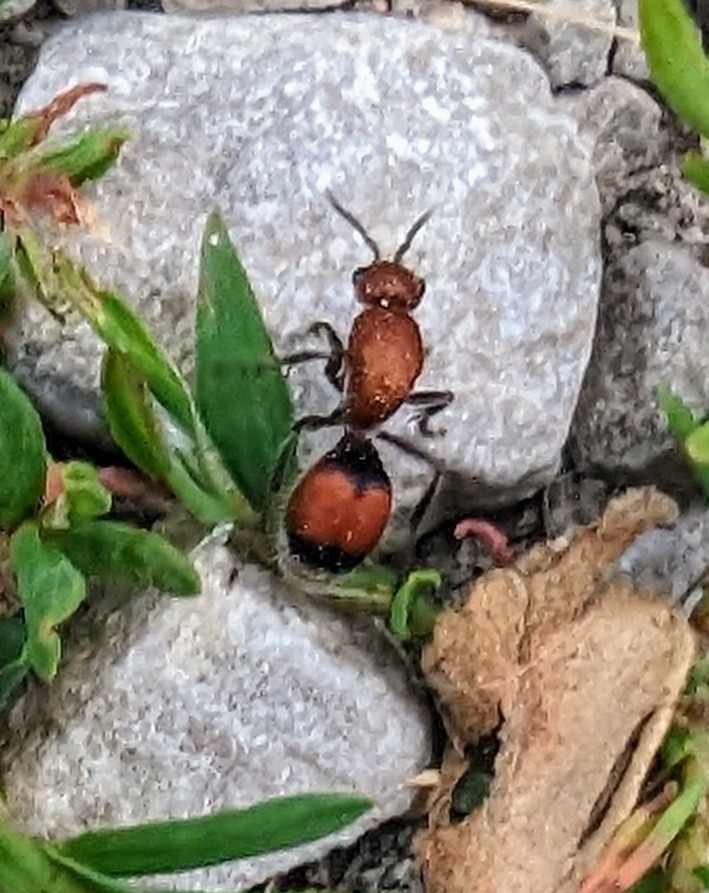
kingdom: Animalia
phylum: Arthropoda
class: Insecta
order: Hymenoptera
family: Mutillidae
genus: Dasymutilla
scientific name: Dasymutilla
